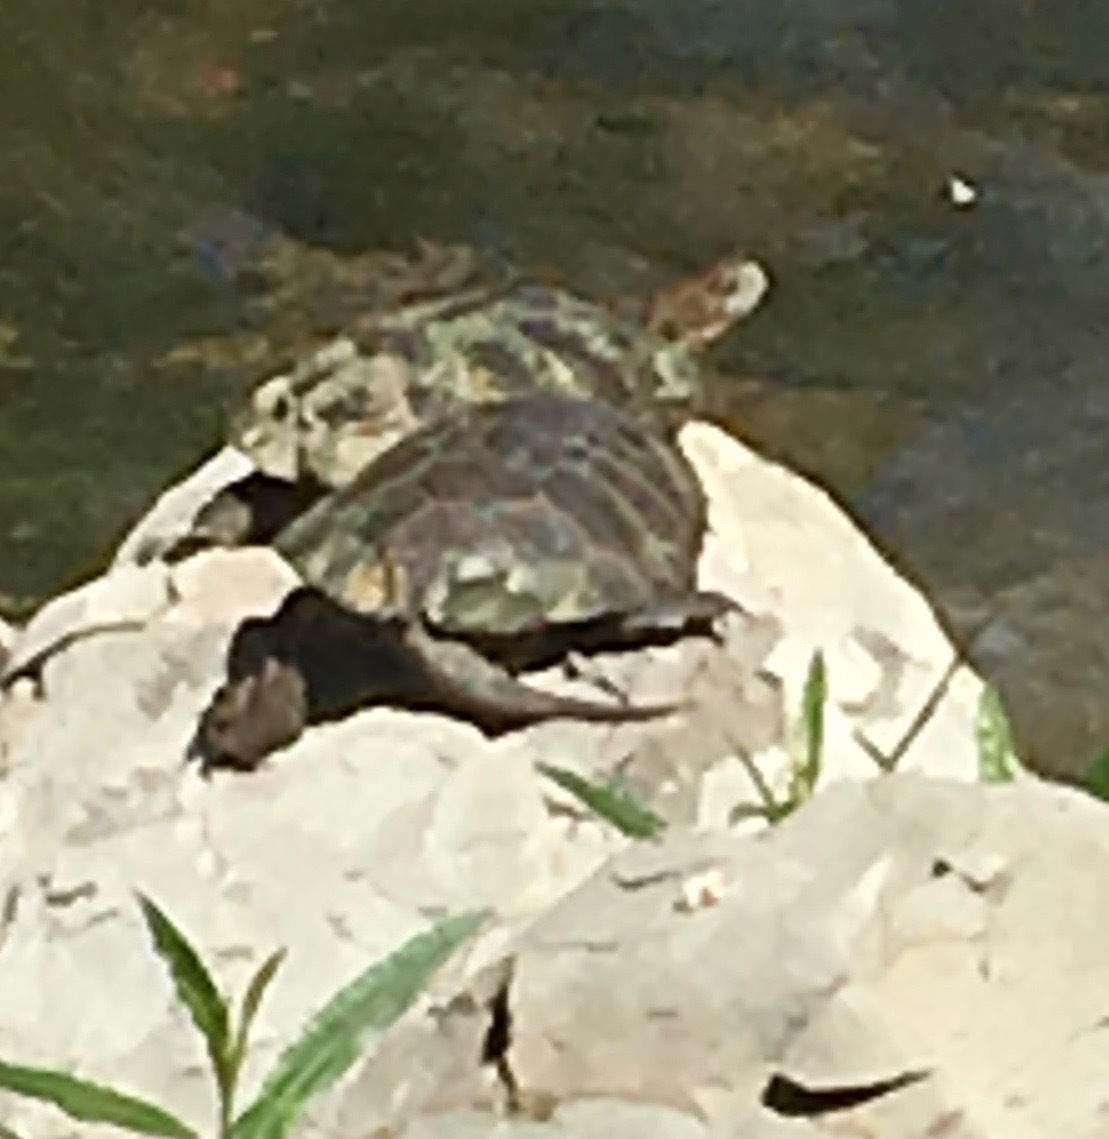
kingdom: Animalia
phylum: Chordata
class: Testudines
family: Emydidae
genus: Actinemys
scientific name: Actinemys marmorata
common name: Western pond turtle
